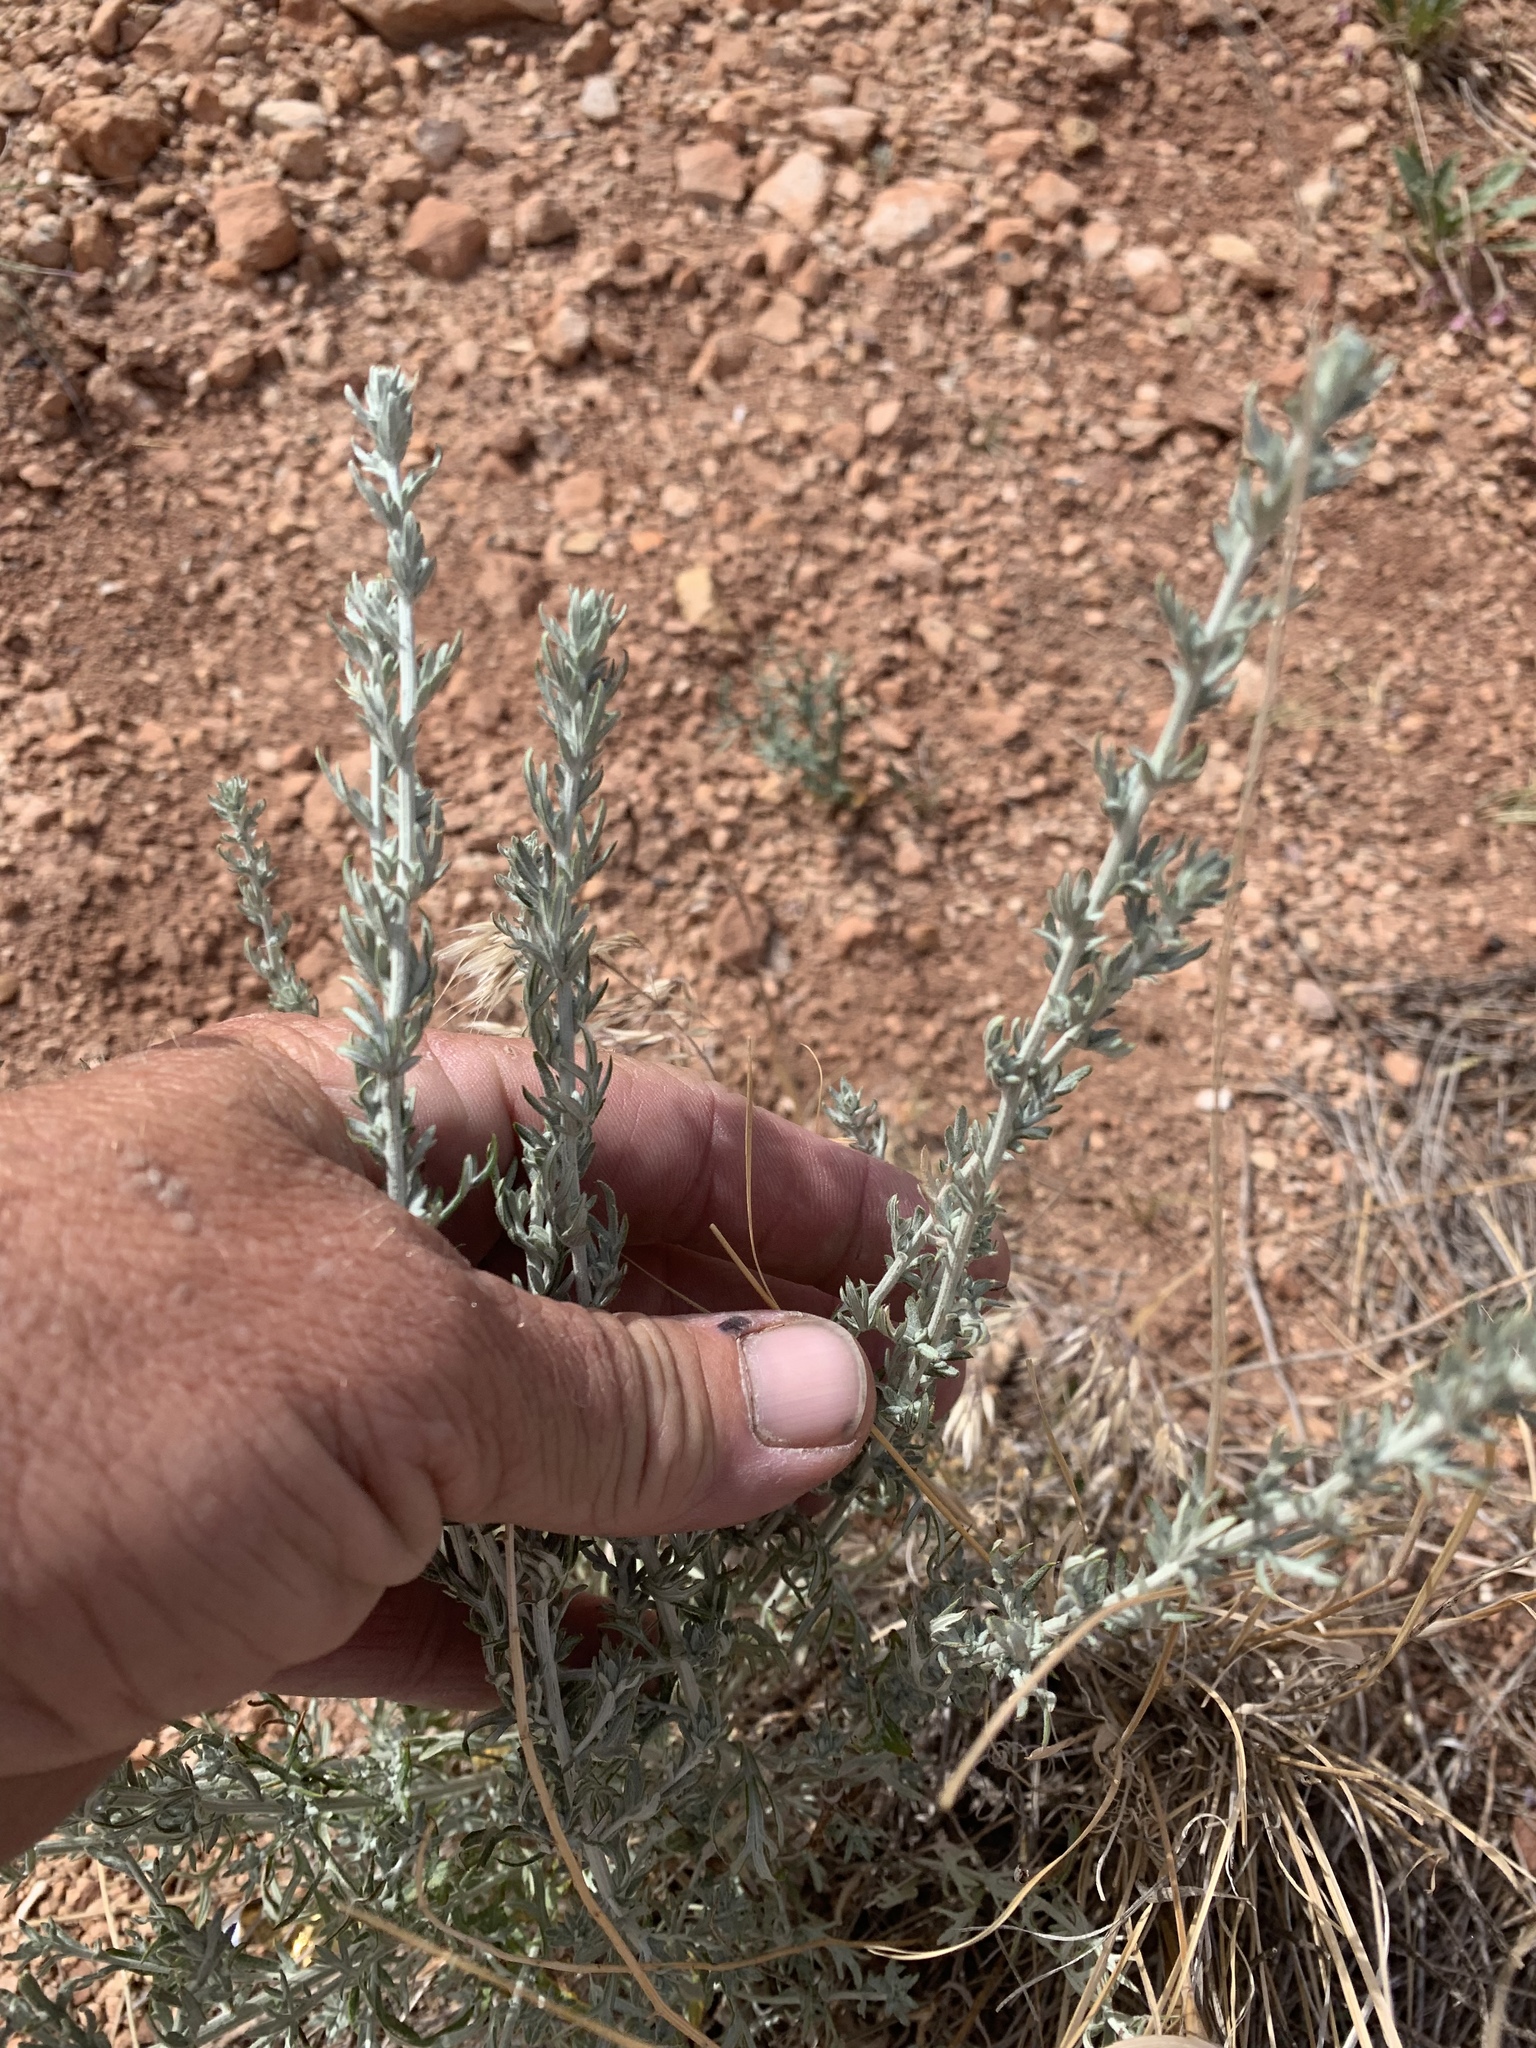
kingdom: Plantae
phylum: Tracheophyta
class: Magnoliopsida
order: Asterales
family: Asteraceae
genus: Artemisia
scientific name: Artemisia ludoviciana
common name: Western mugwort
